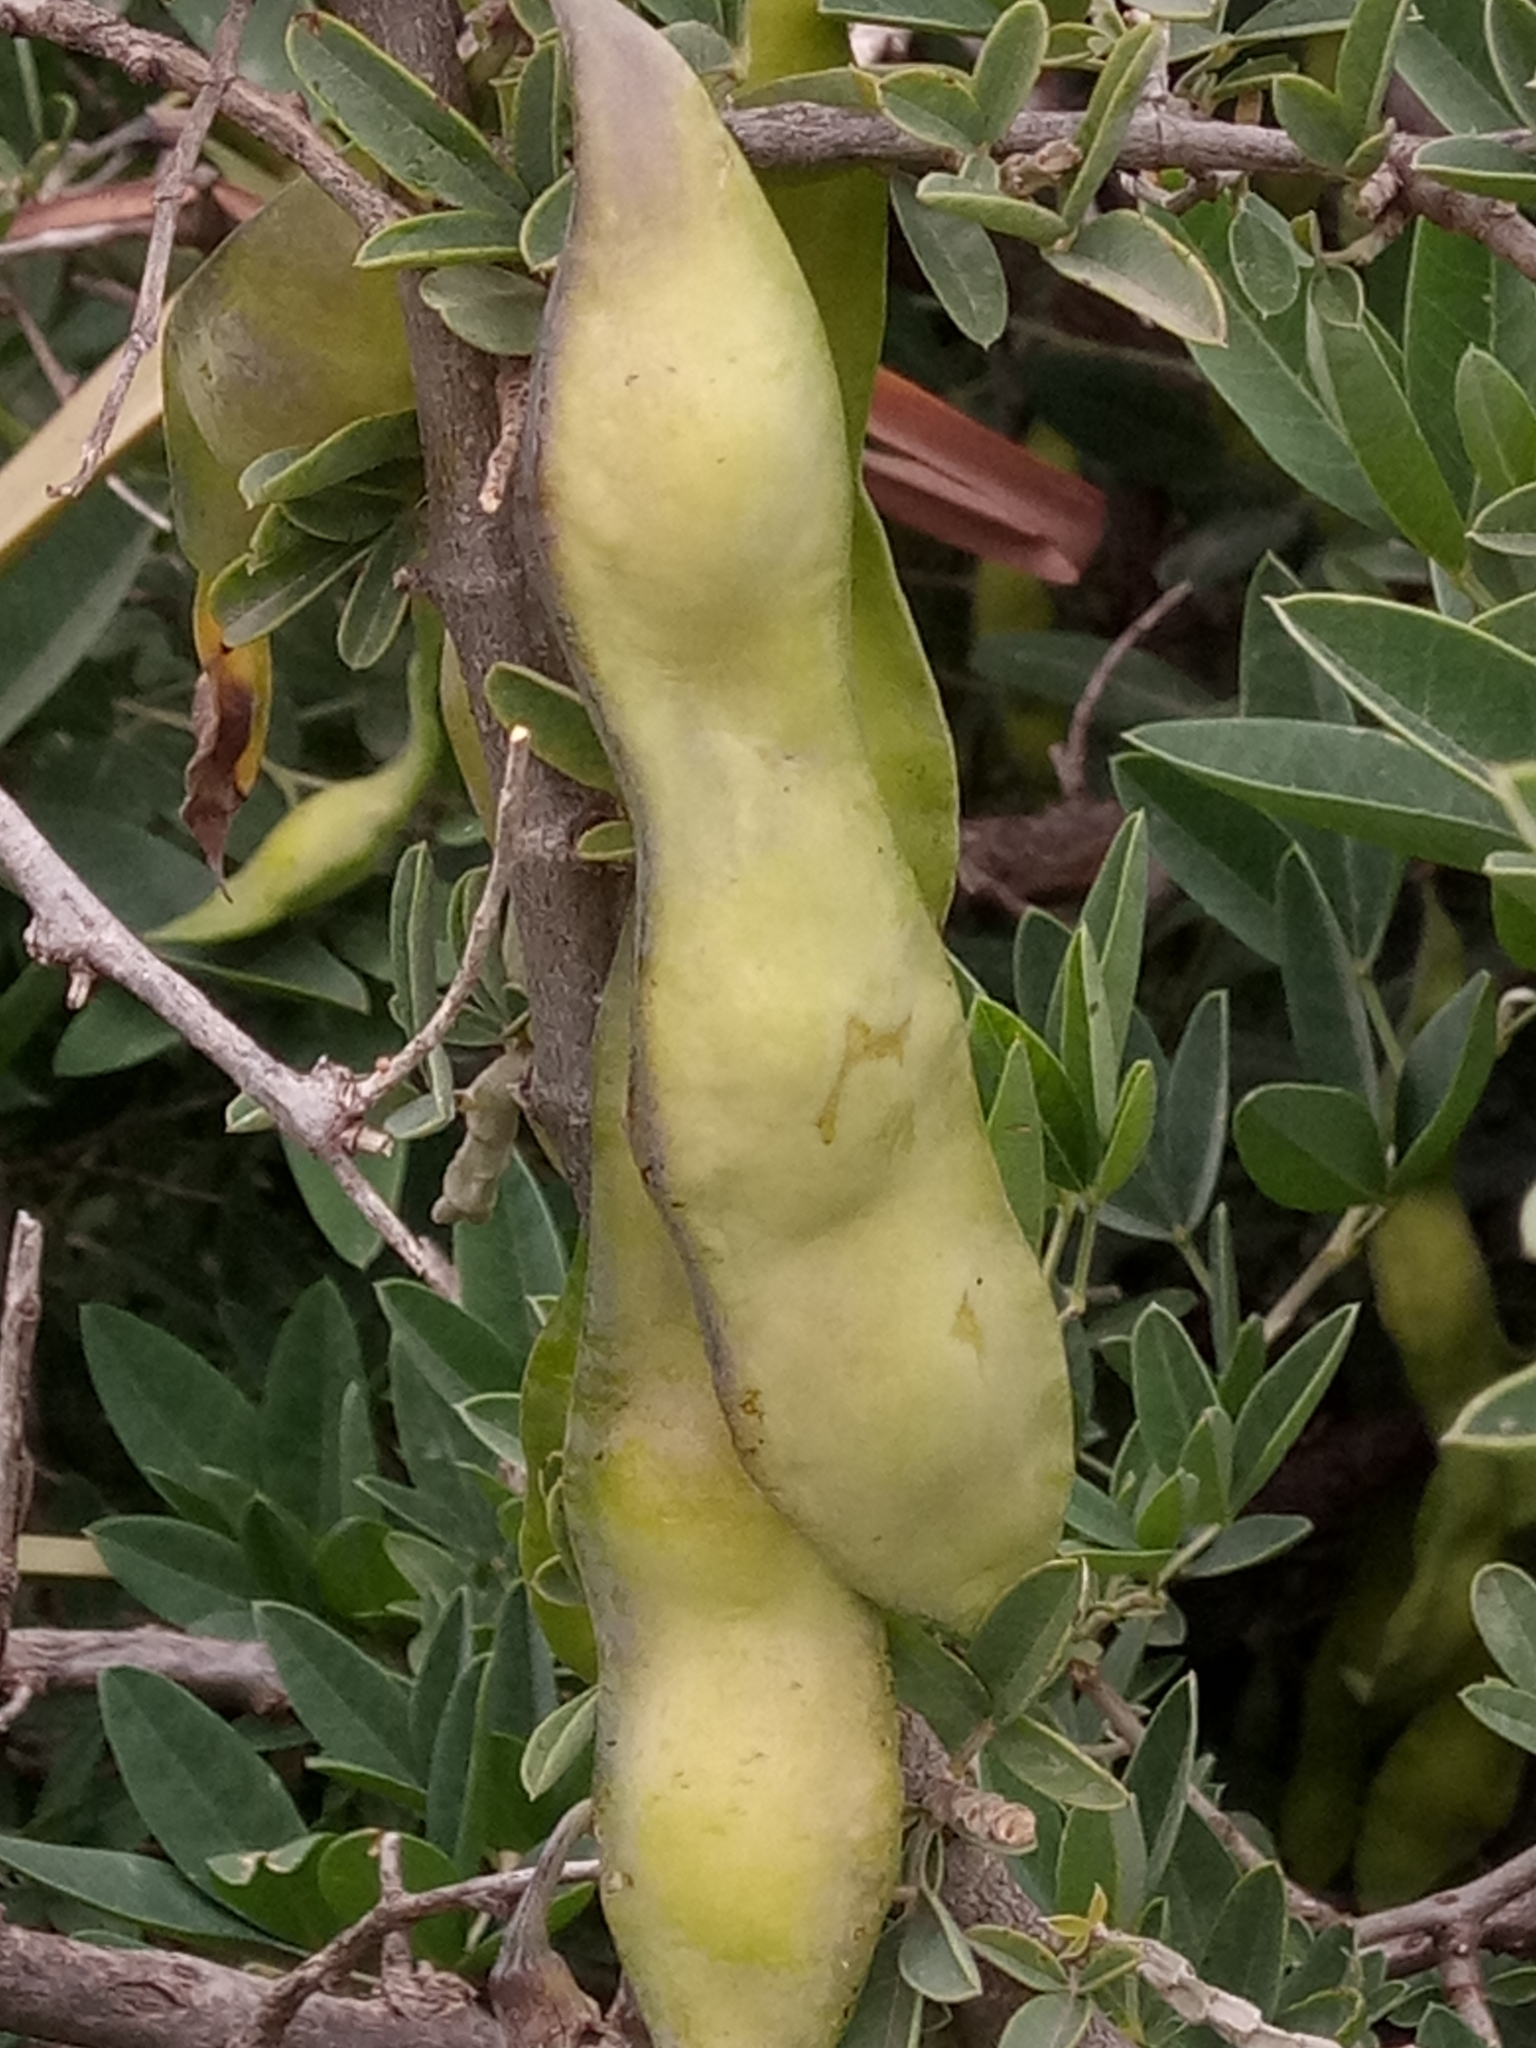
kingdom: Plantae
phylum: Tracheophyta
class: Magnoliopsida
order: Fabales
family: Fabaceae
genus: Anagyris
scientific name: Anagyris foetida
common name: Stinking bean trefoil
